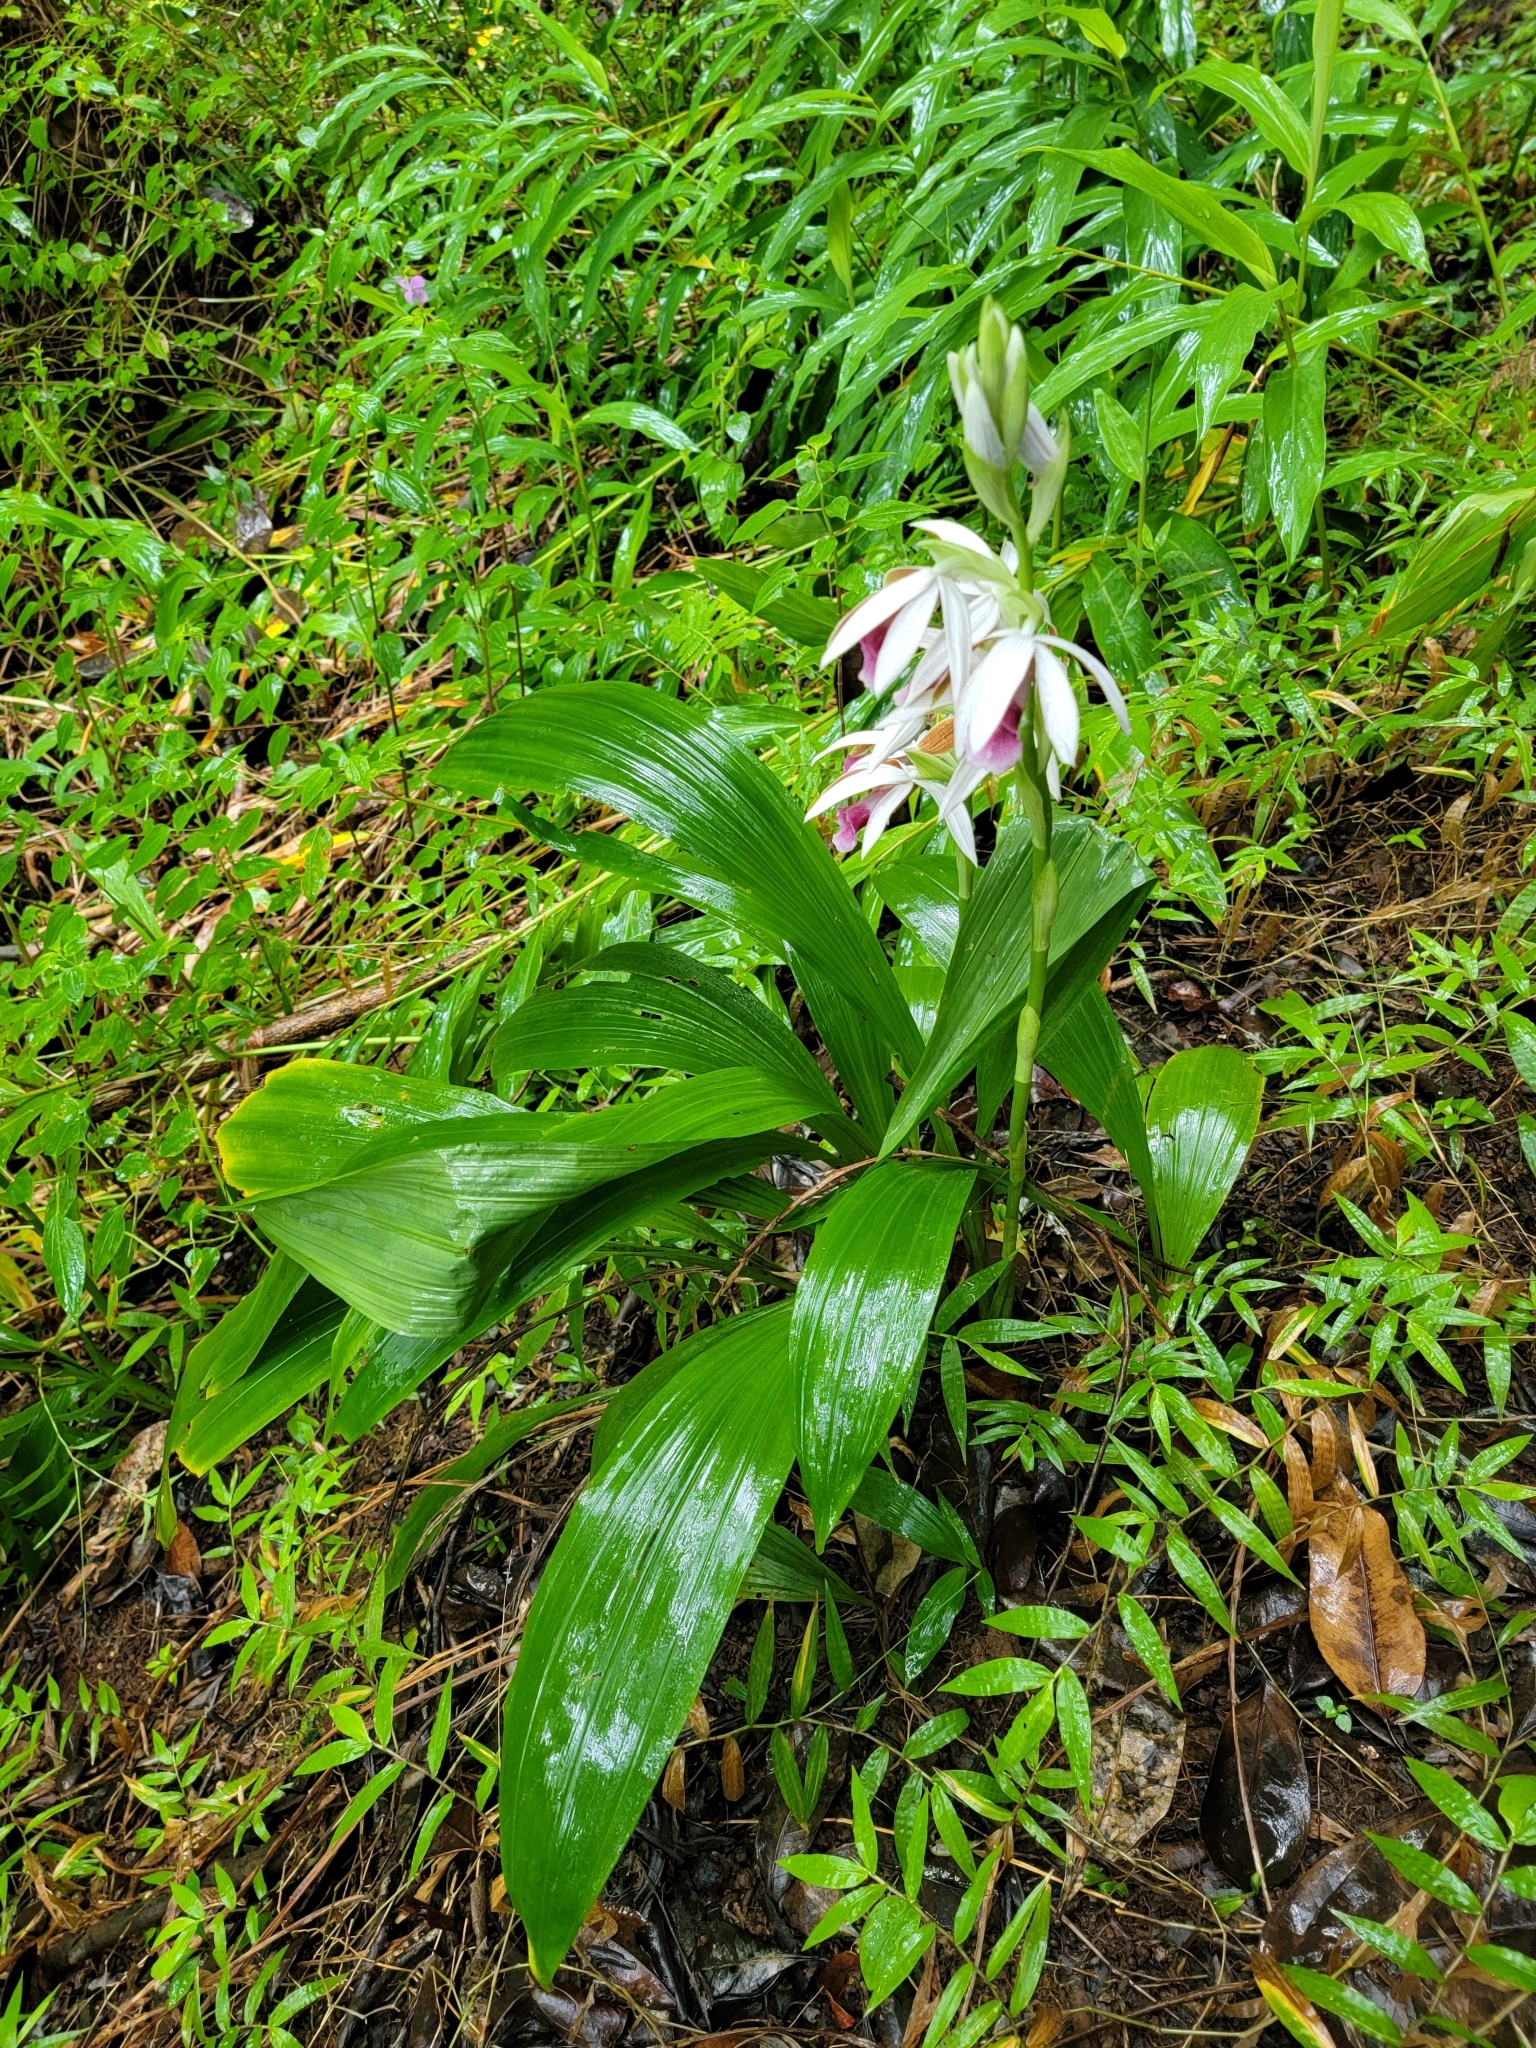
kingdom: Plantae
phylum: Tracheophyta
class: Liliopsida
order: Asparagales
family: Orchidaceae
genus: Calanthe
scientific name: Calanthe tankervilleae
